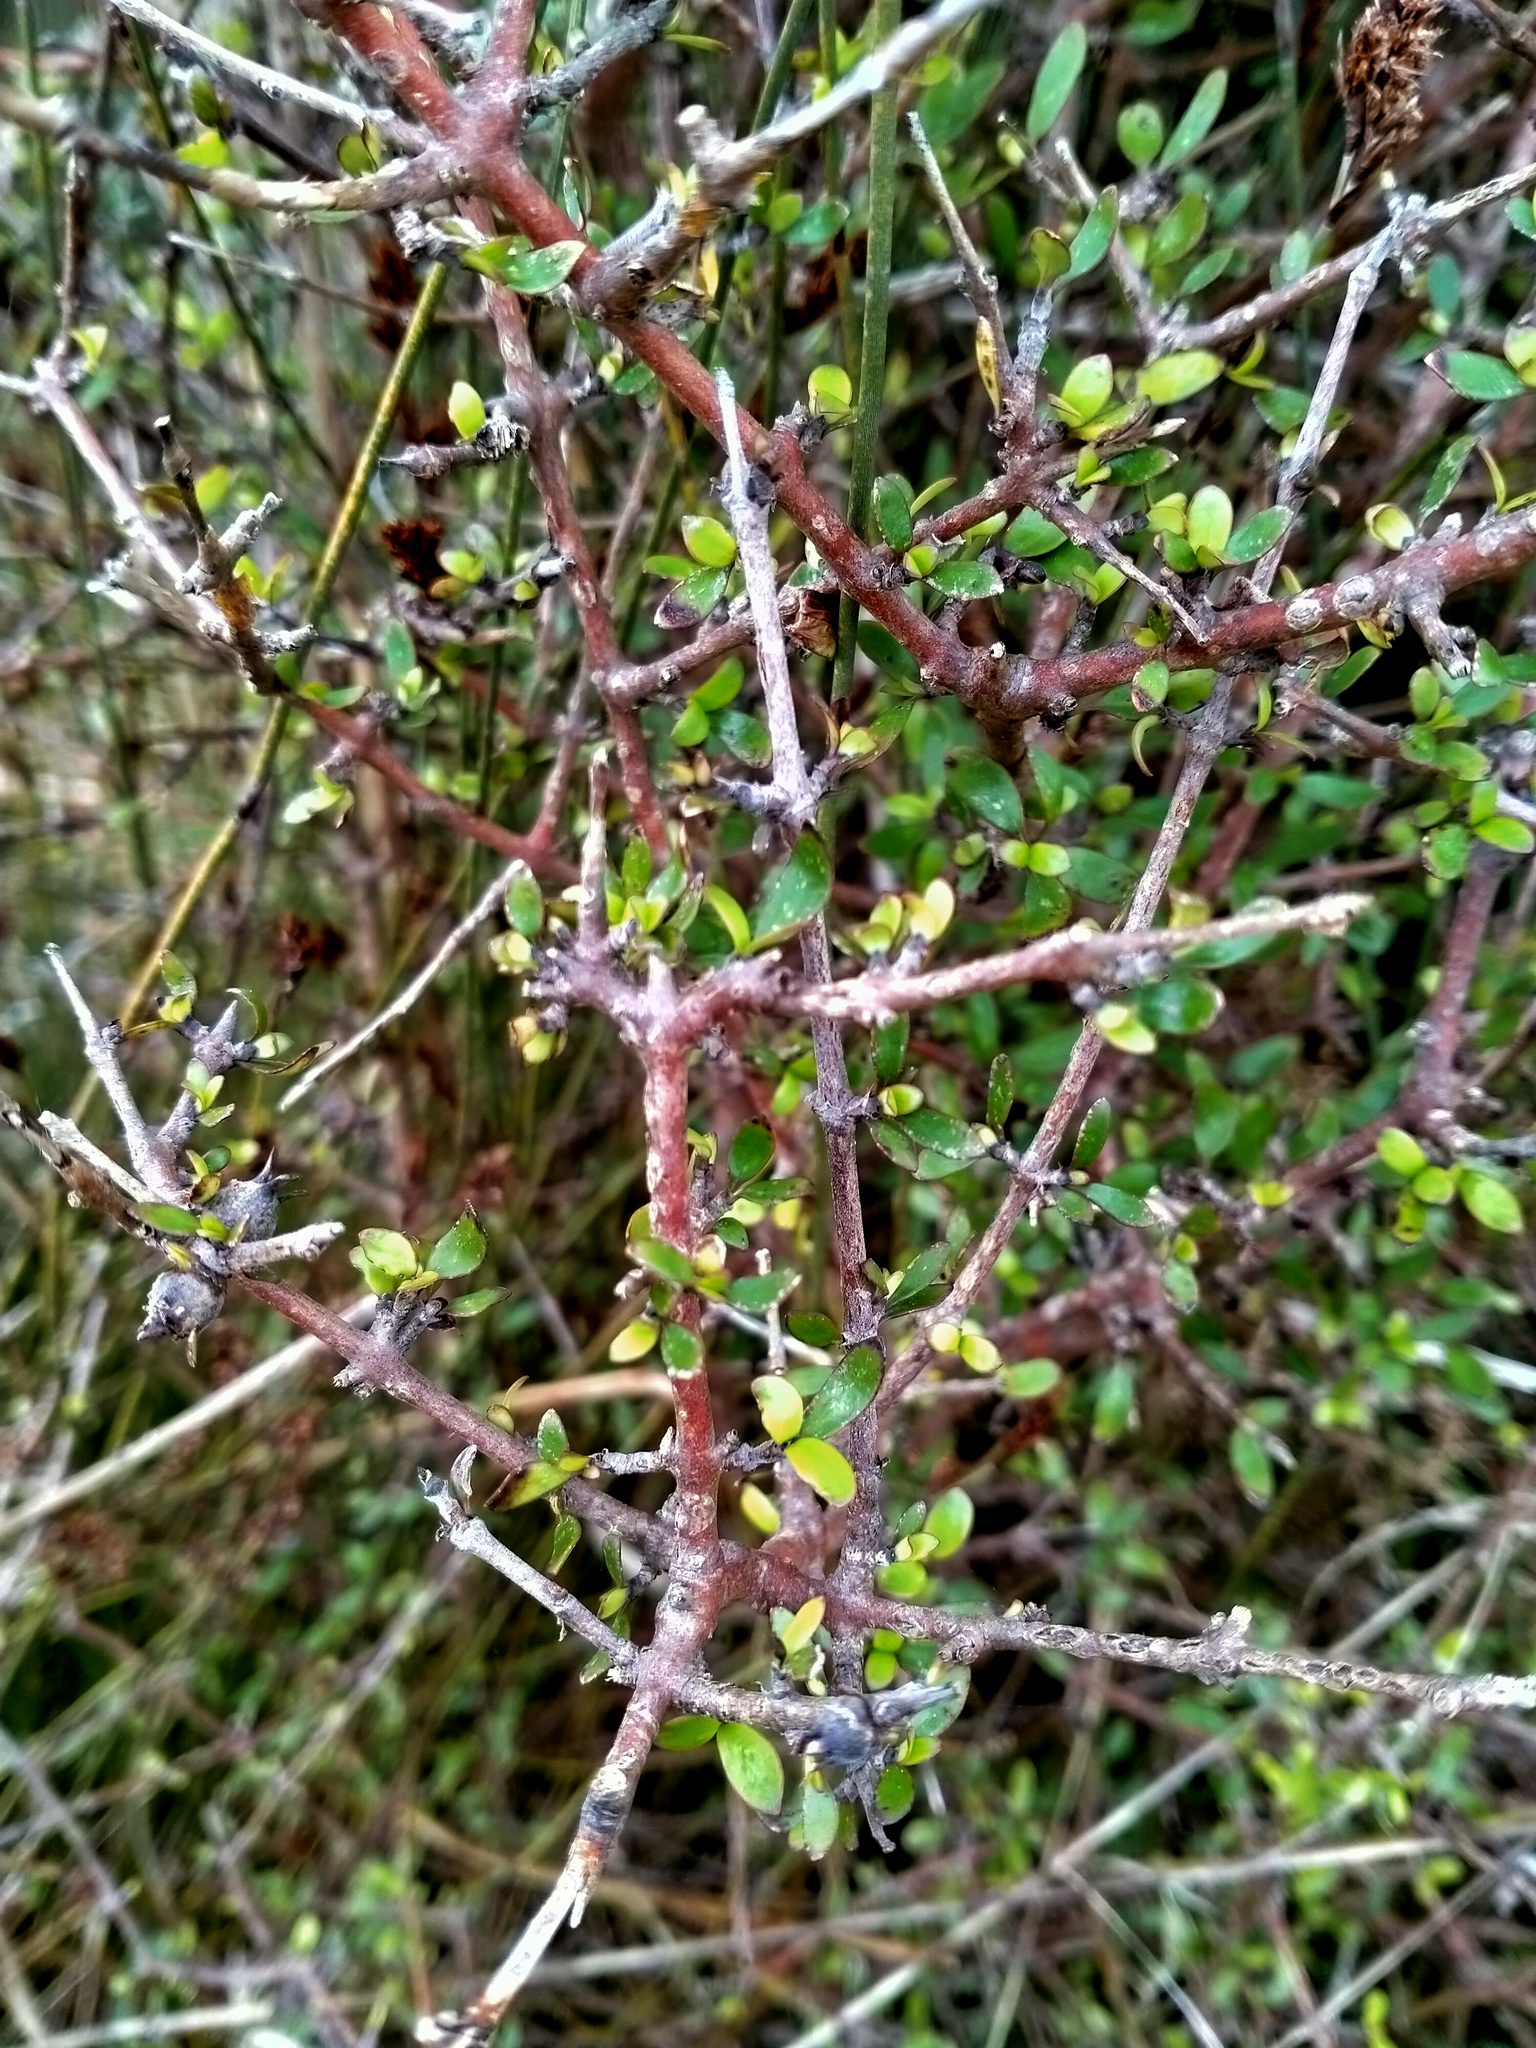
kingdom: Plantae
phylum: Tracheophyta
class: Magnoliopsida
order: Gentianales
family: Rubiaceae
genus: Coprosma
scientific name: Coprosma propinqua
